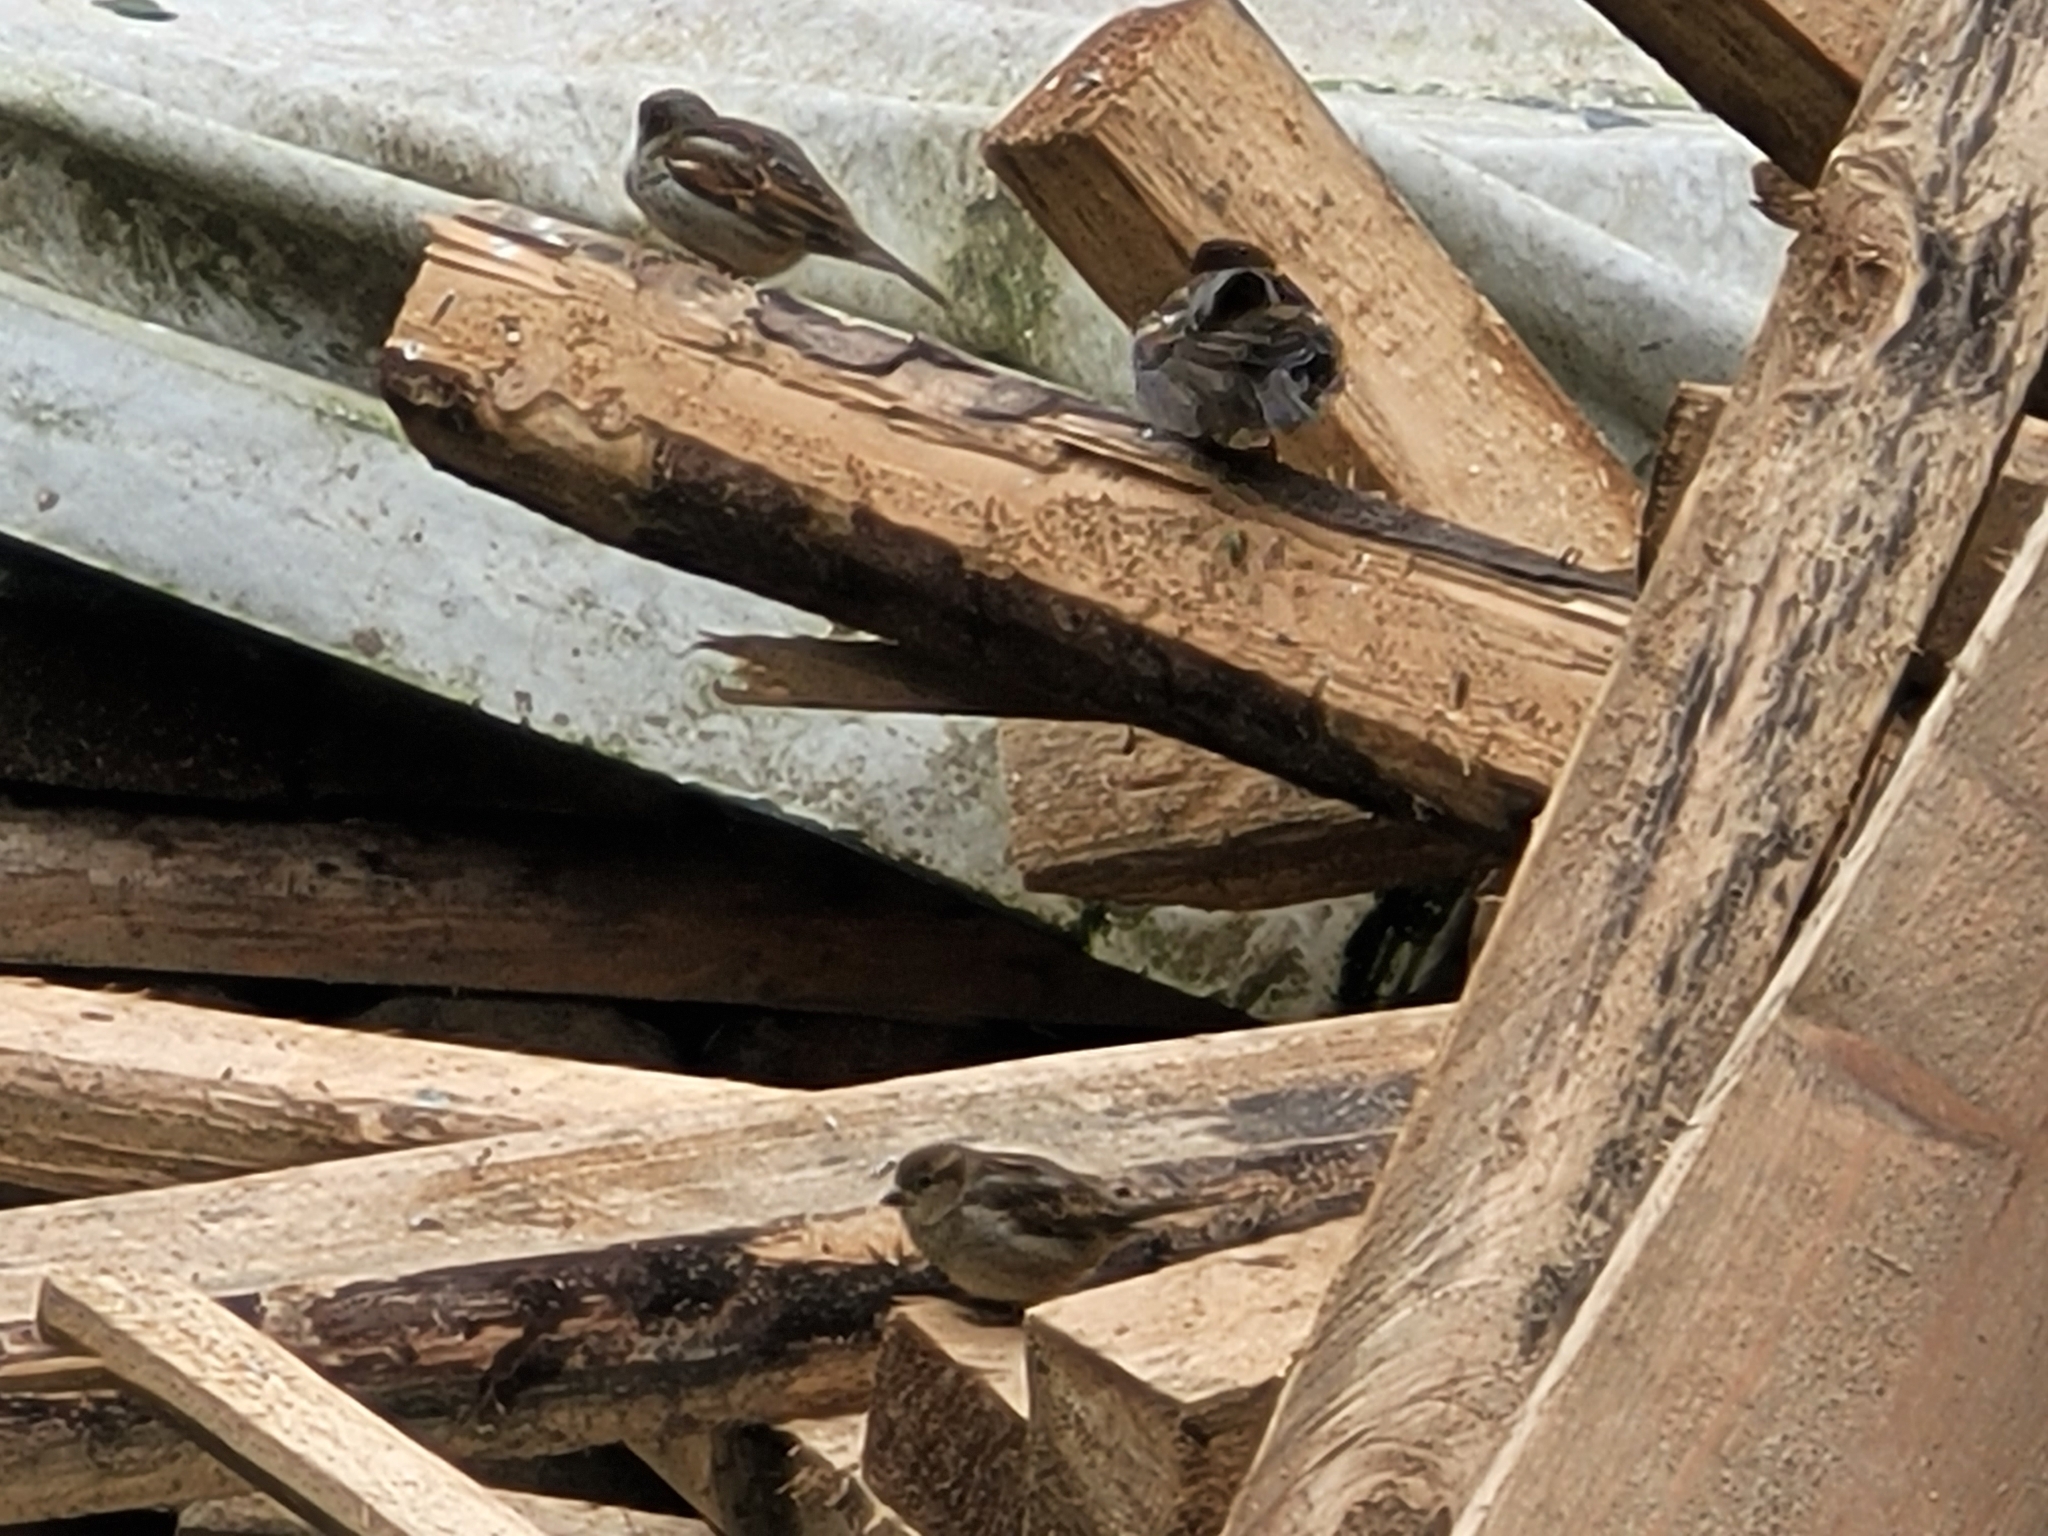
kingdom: Animalia
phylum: Chordata
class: Aves
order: Passeriformes
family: Passeridae
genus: Passer
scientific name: Passer domesticus
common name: House sparrow
